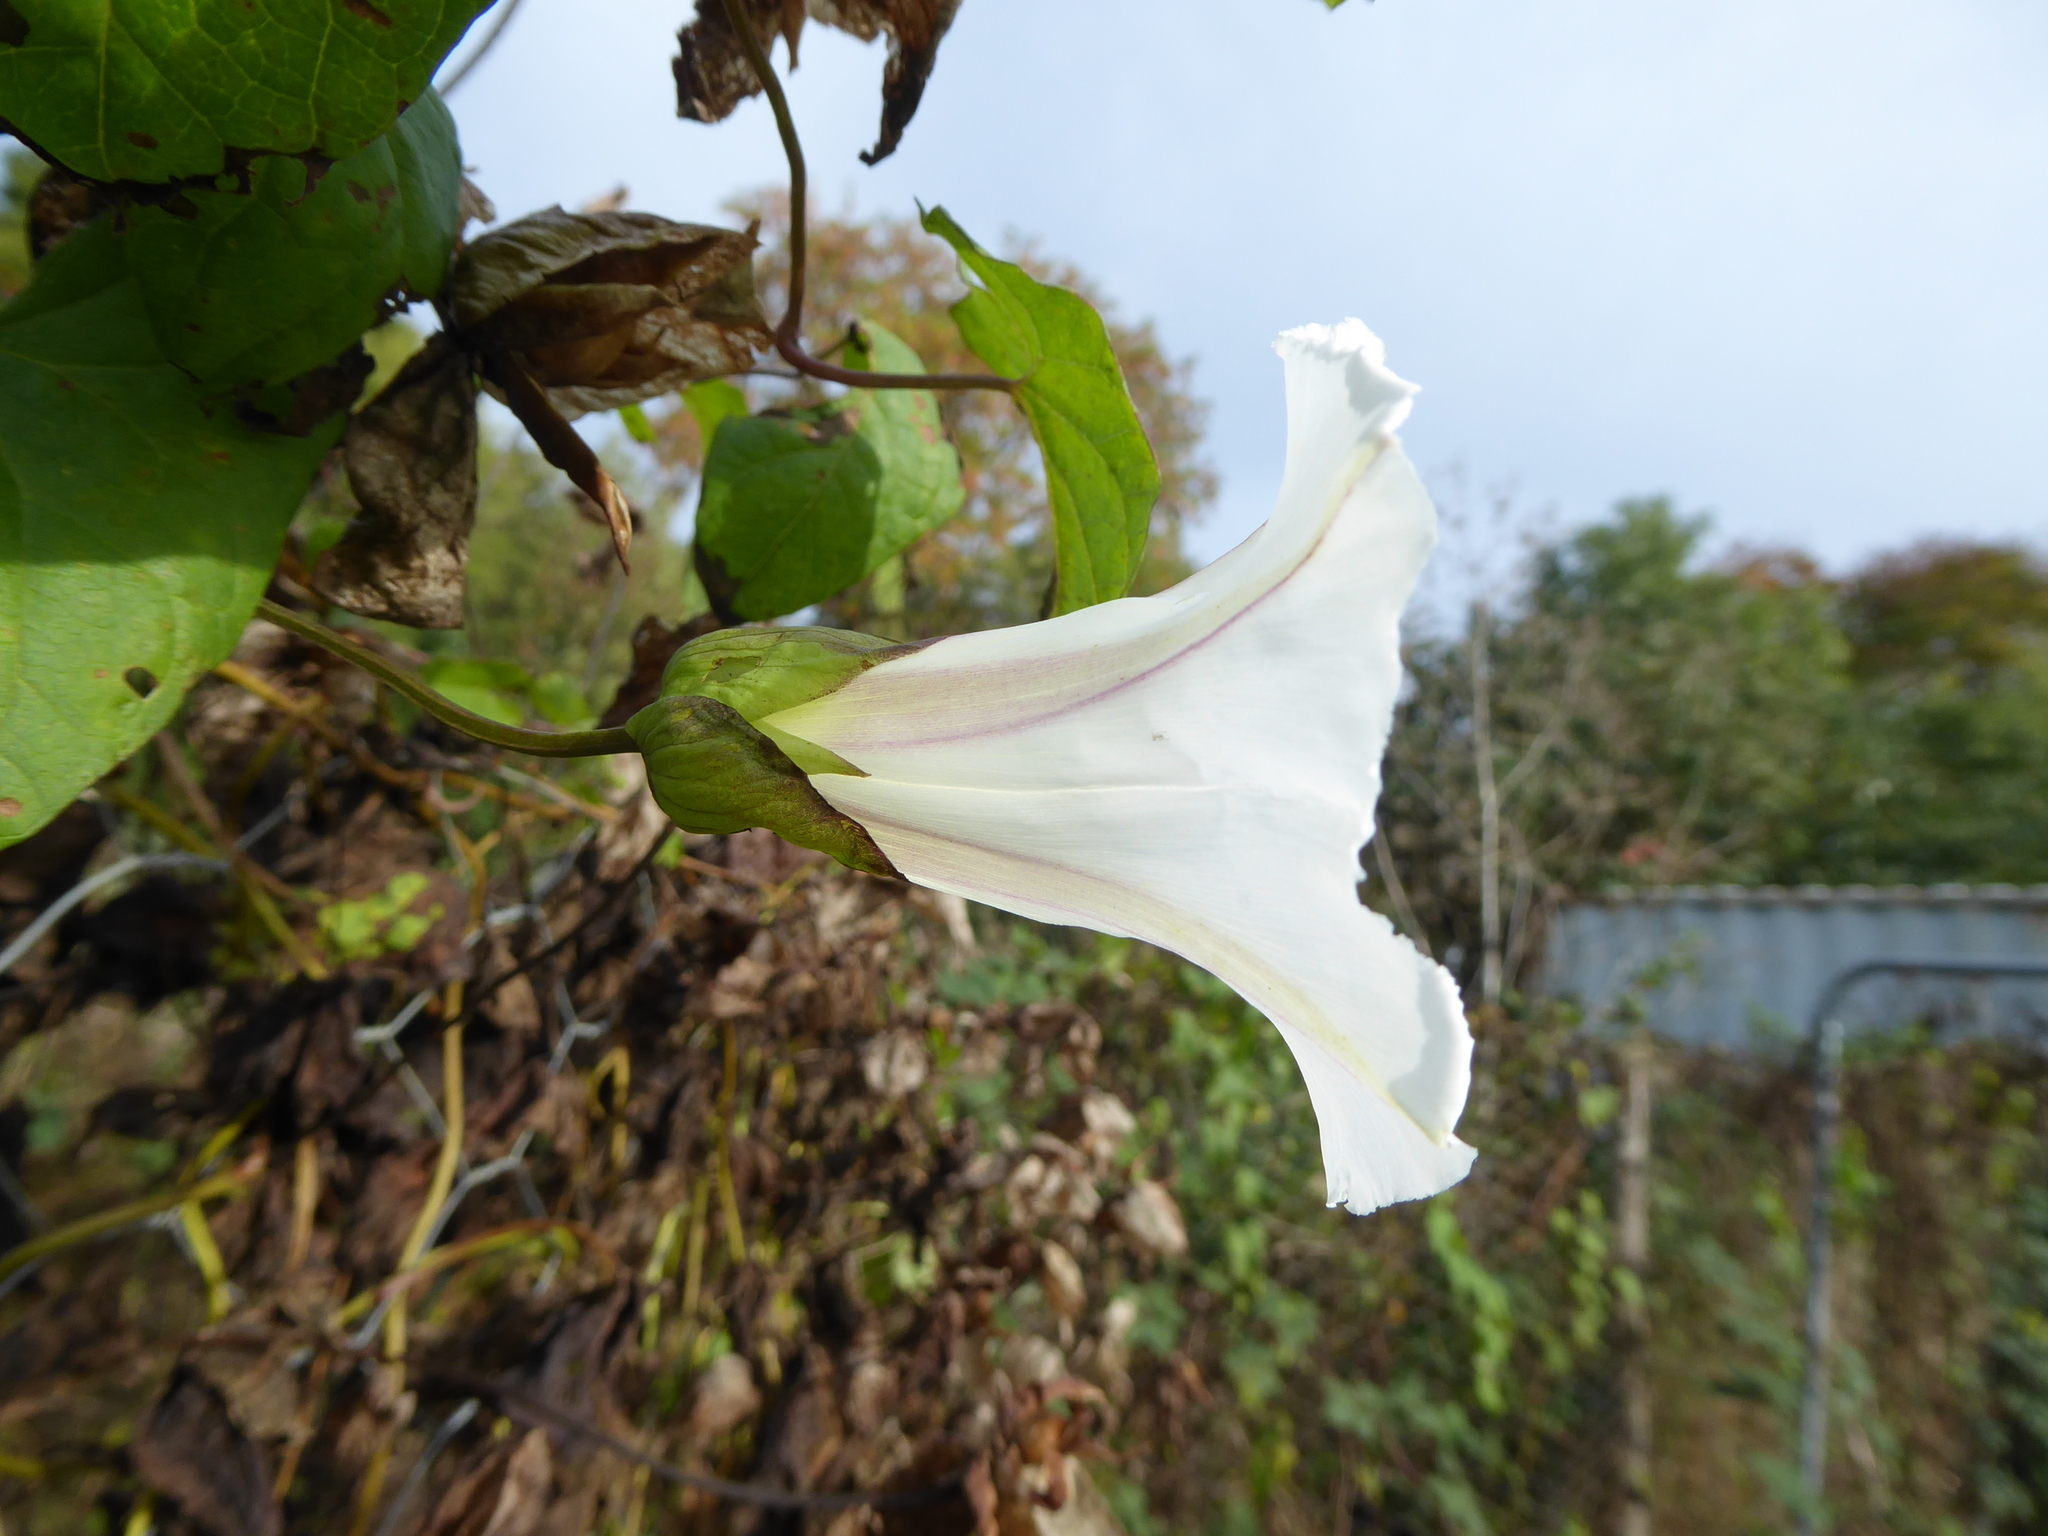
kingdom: Plantae
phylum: Tracheophyta
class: Magnoliopsida
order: Solanales
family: Convolvulaceae
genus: Calystegia
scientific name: Calystegia lucana
